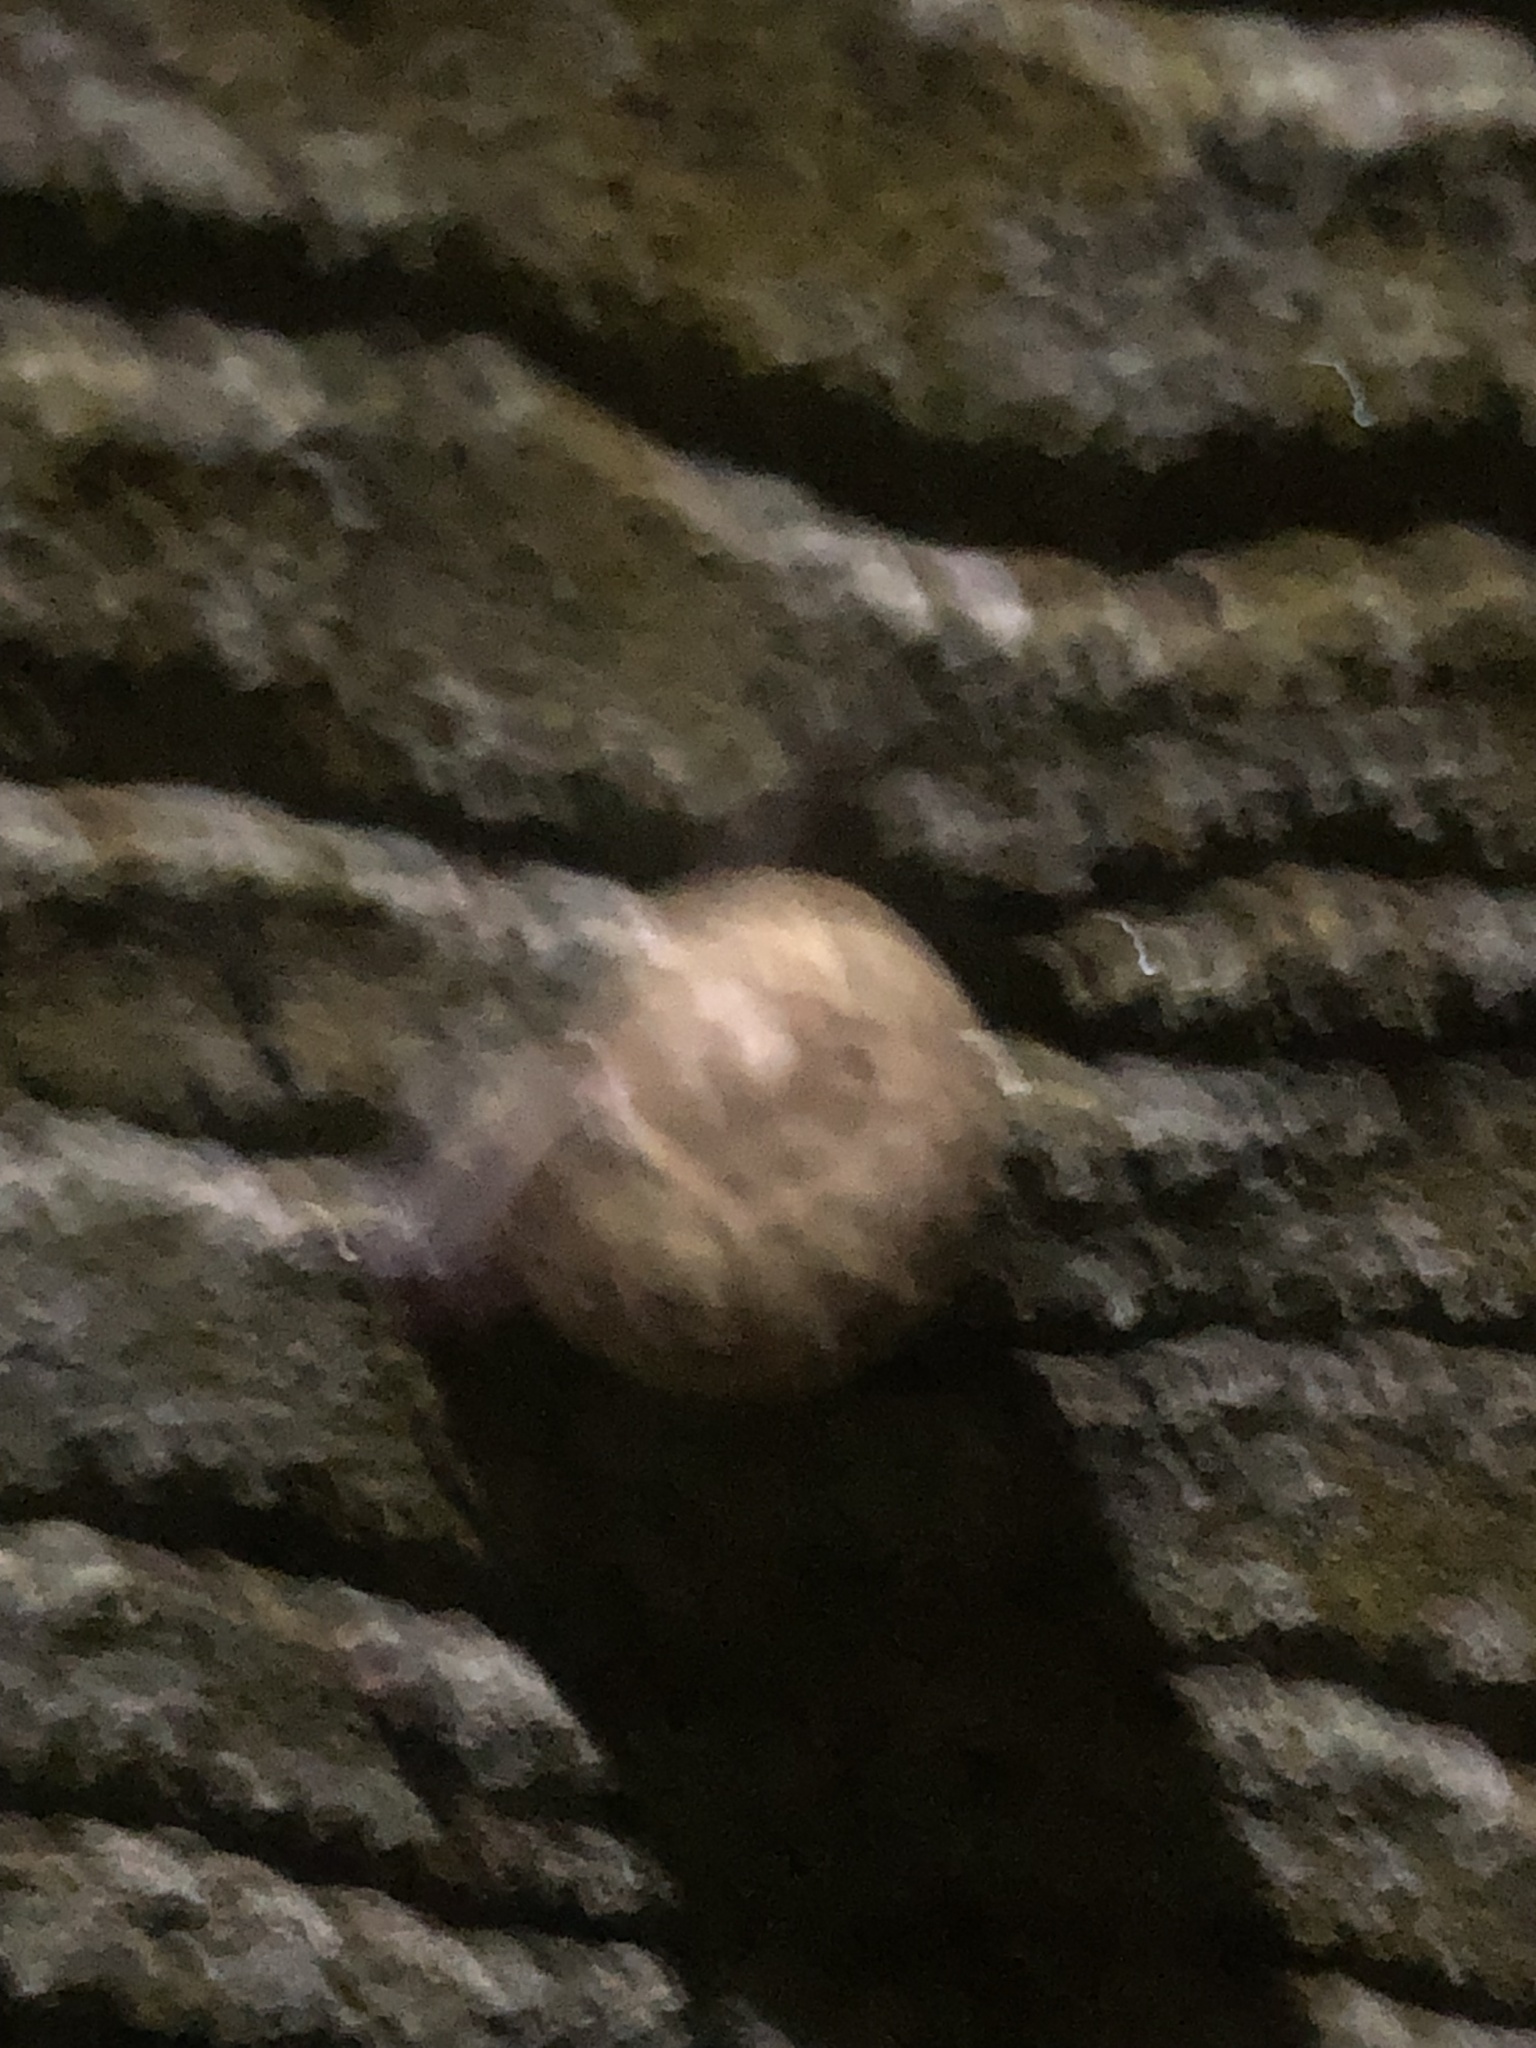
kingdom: Animalia
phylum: Mollusca
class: Gastropoda
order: Stylommatophora
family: Helicidae
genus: Cornu
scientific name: Cornu aspersum
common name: Brown garden snail
